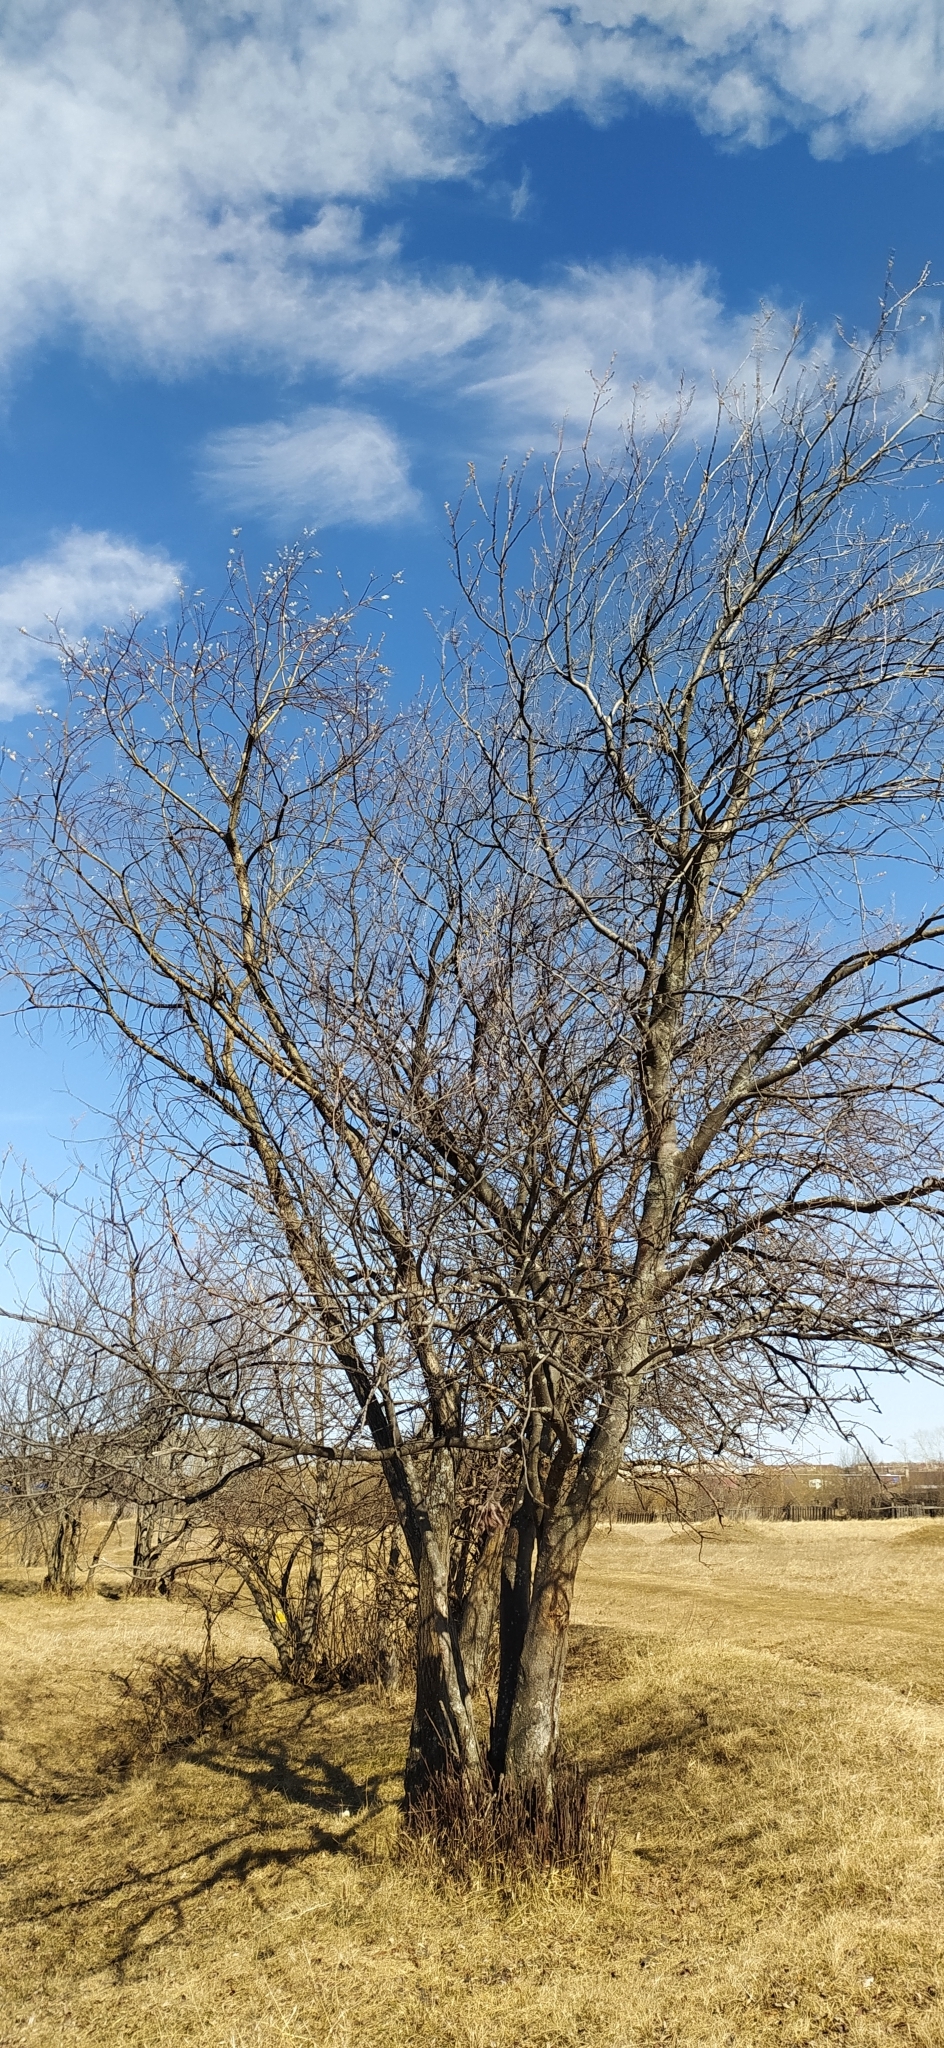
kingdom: Plantae
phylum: Tracheophyta
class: Magnoliopsida
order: Malpighiales
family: Salicaceae
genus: Salix
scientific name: Salix caprea
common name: Goat willow
